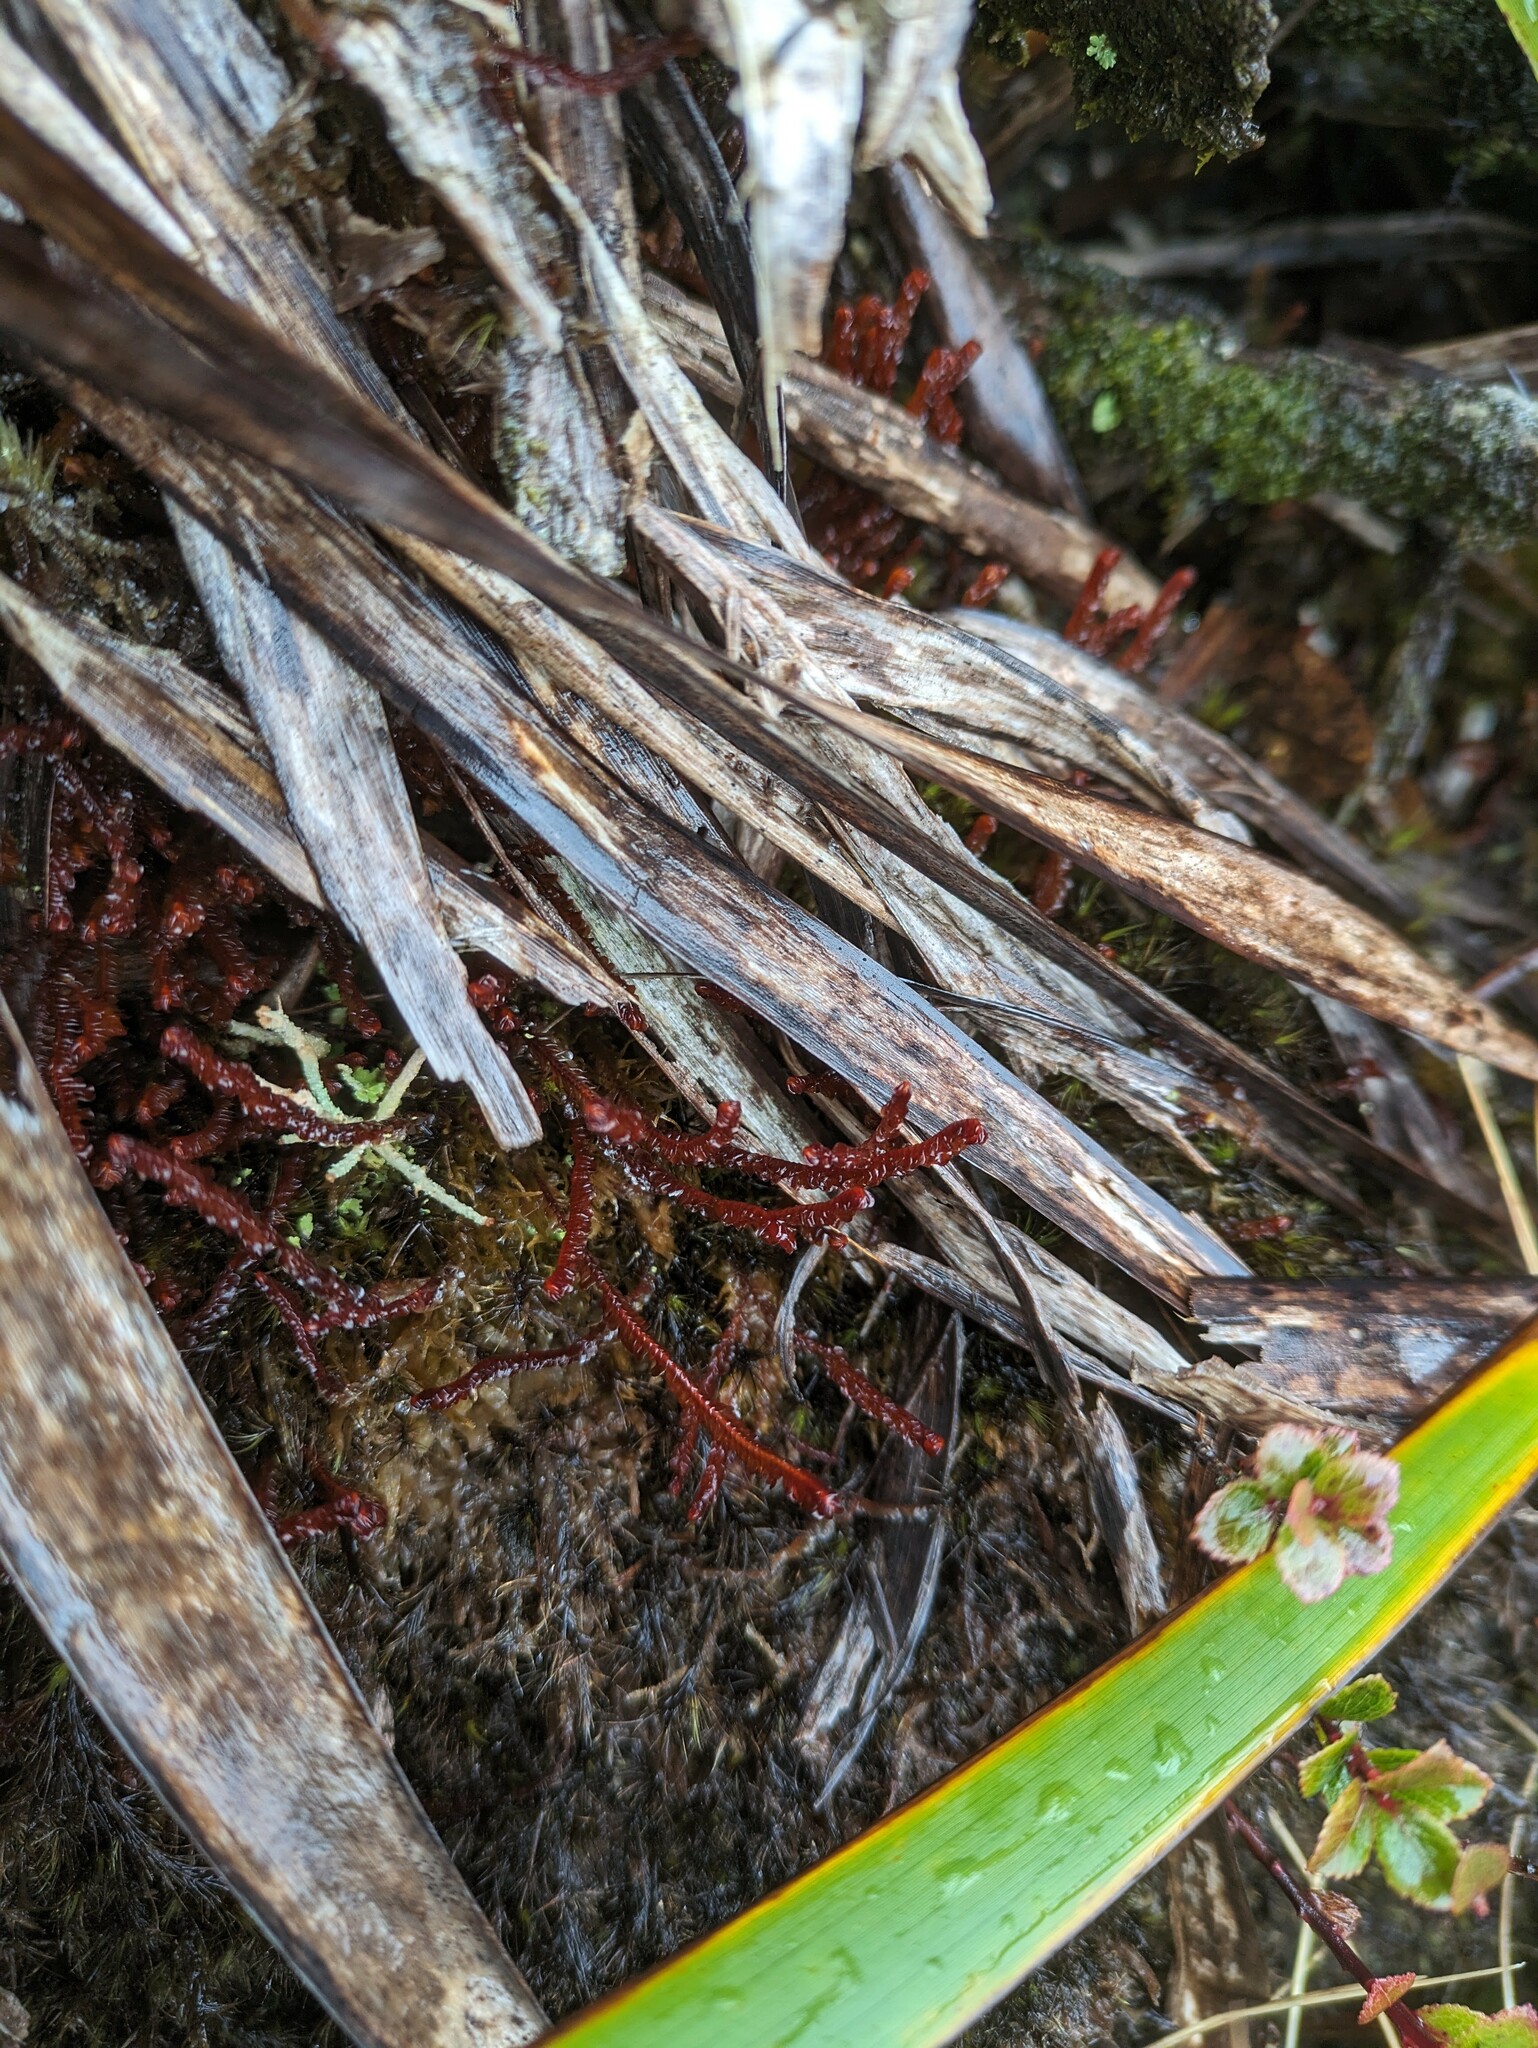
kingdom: Plantae
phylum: Marchantiophyta
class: Jungermanniopsida
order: Jungermanniales
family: Adelanthaceae
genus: Cuspidatula
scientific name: Cuspidatula robusta
